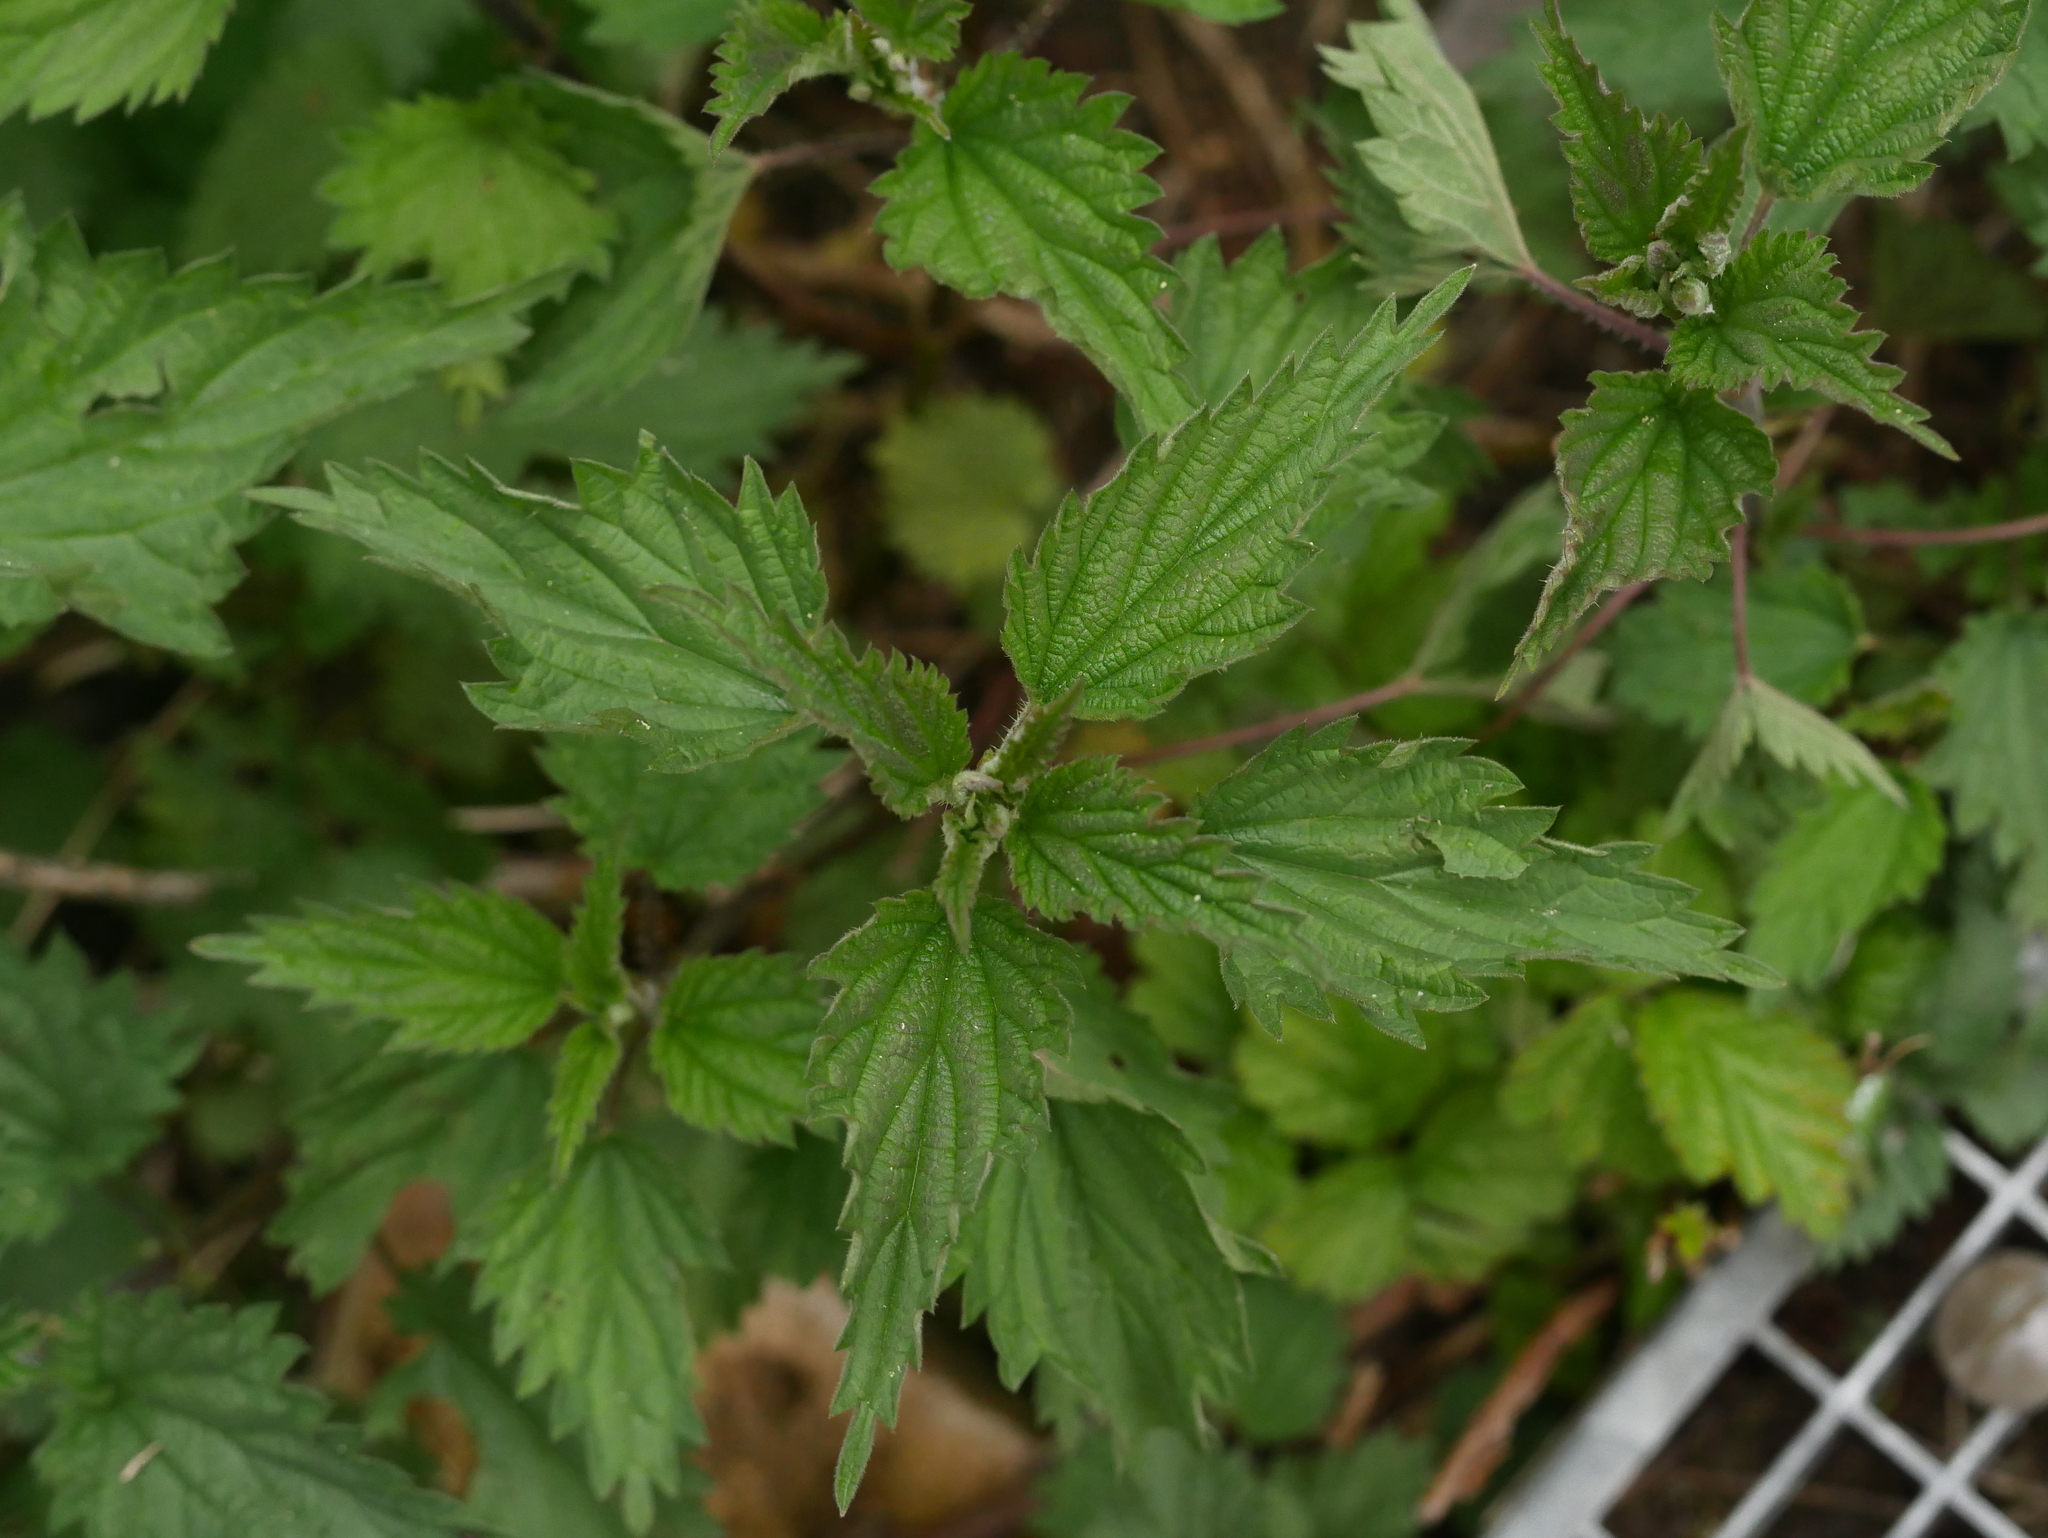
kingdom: Plantae
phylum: Tracheophyta
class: Magnoliopsida
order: Rosales
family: Urticaceae
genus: Urtica
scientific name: Urtica dioica
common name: Common nettle
